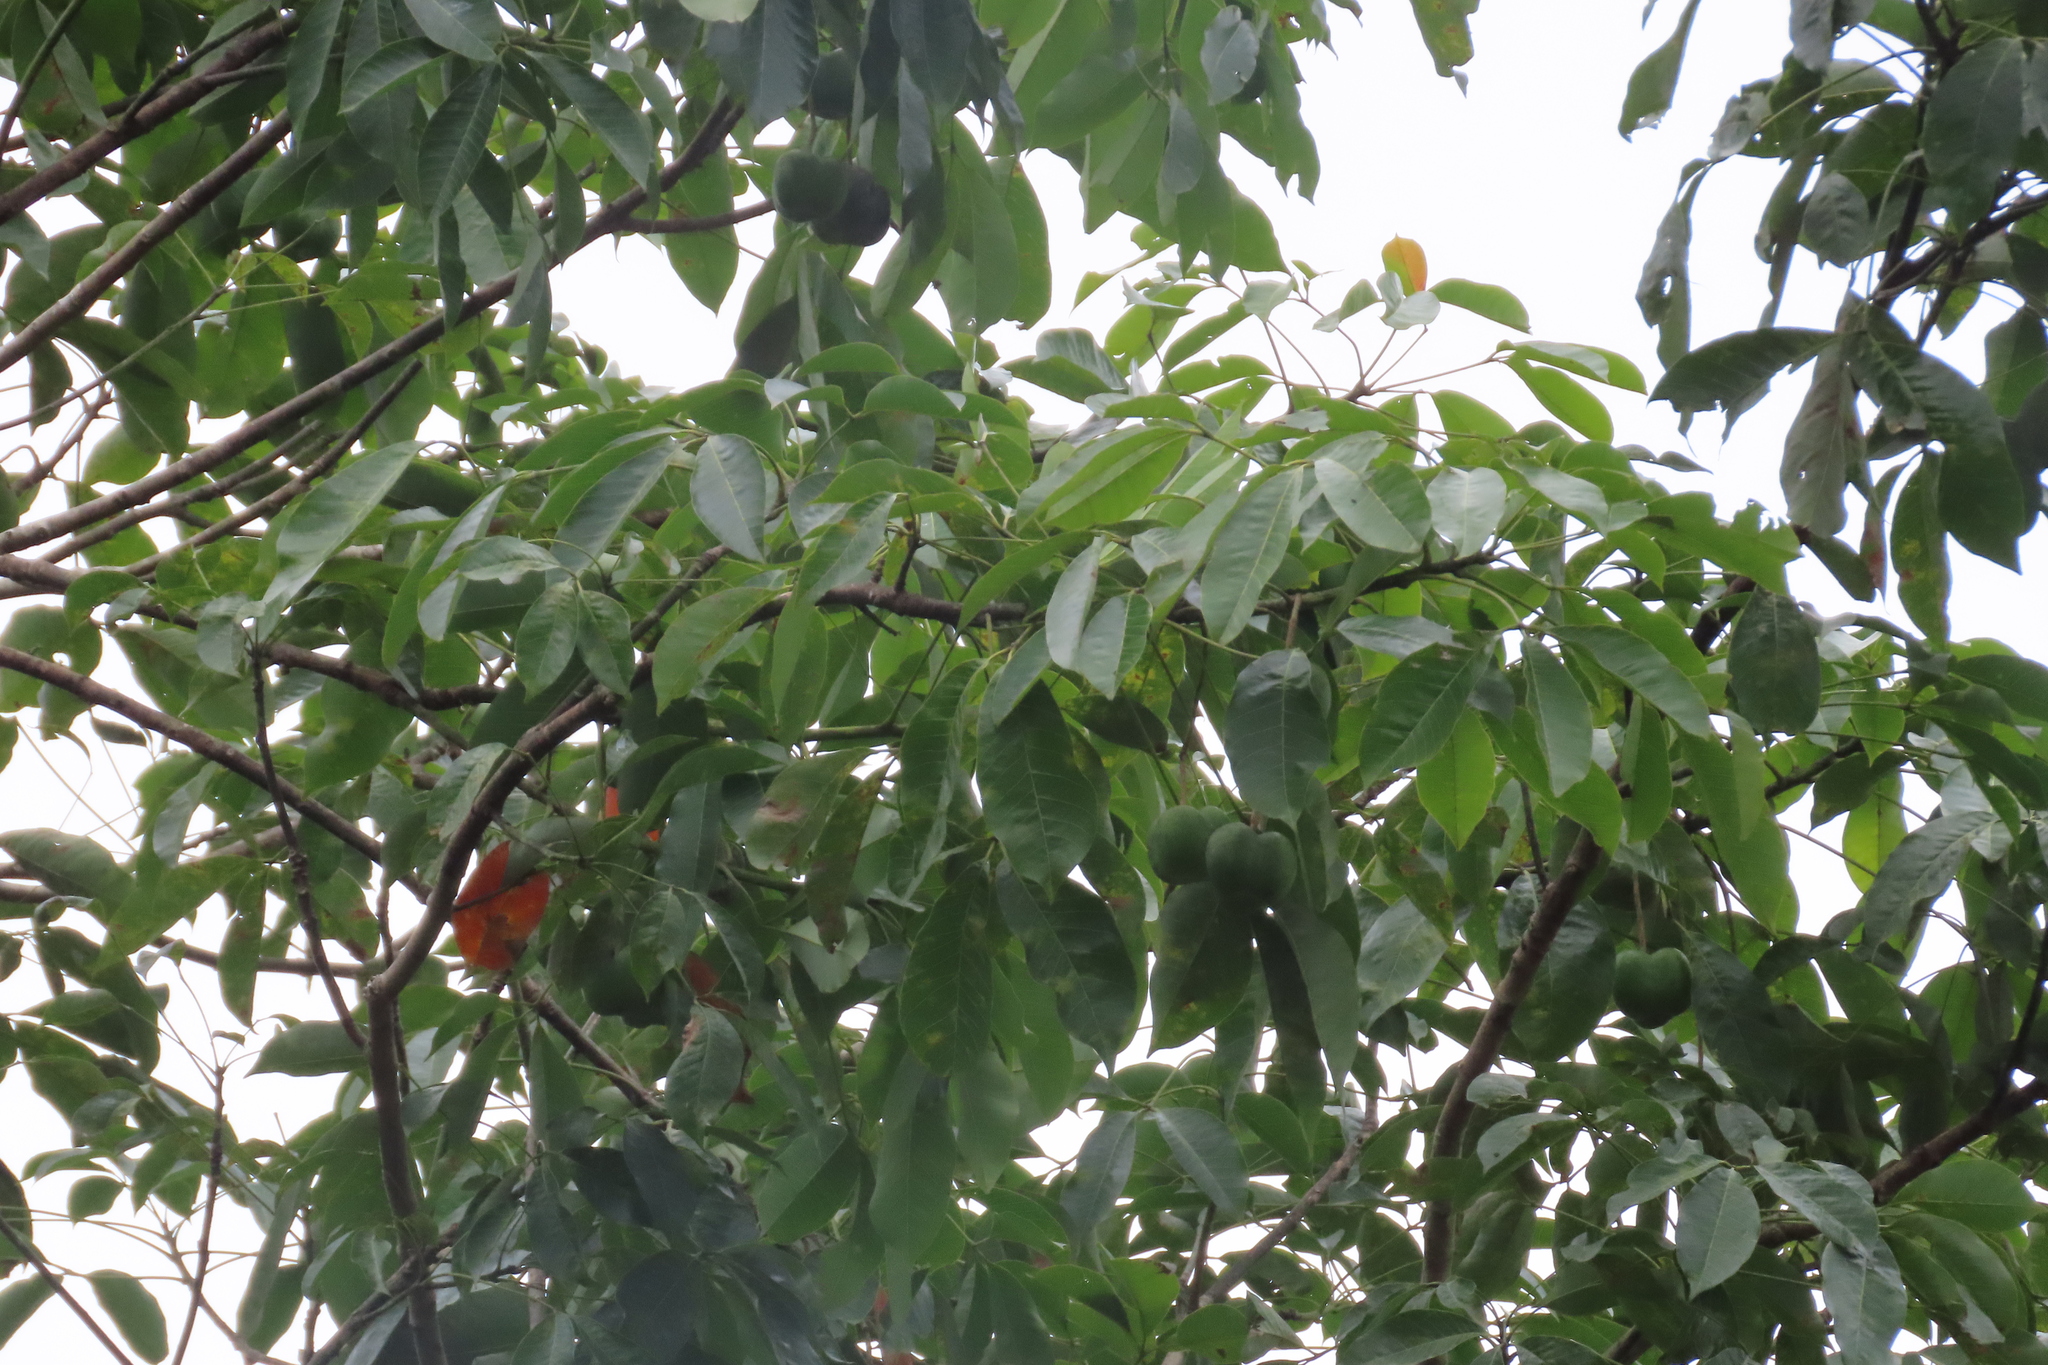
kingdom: Plantae
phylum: Tracheophyta
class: Magnoliopsida
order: Malpighiales
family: Euphorbiaceae
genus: Hevea
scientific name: Hevea brasiliensis
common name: Natural rubber
